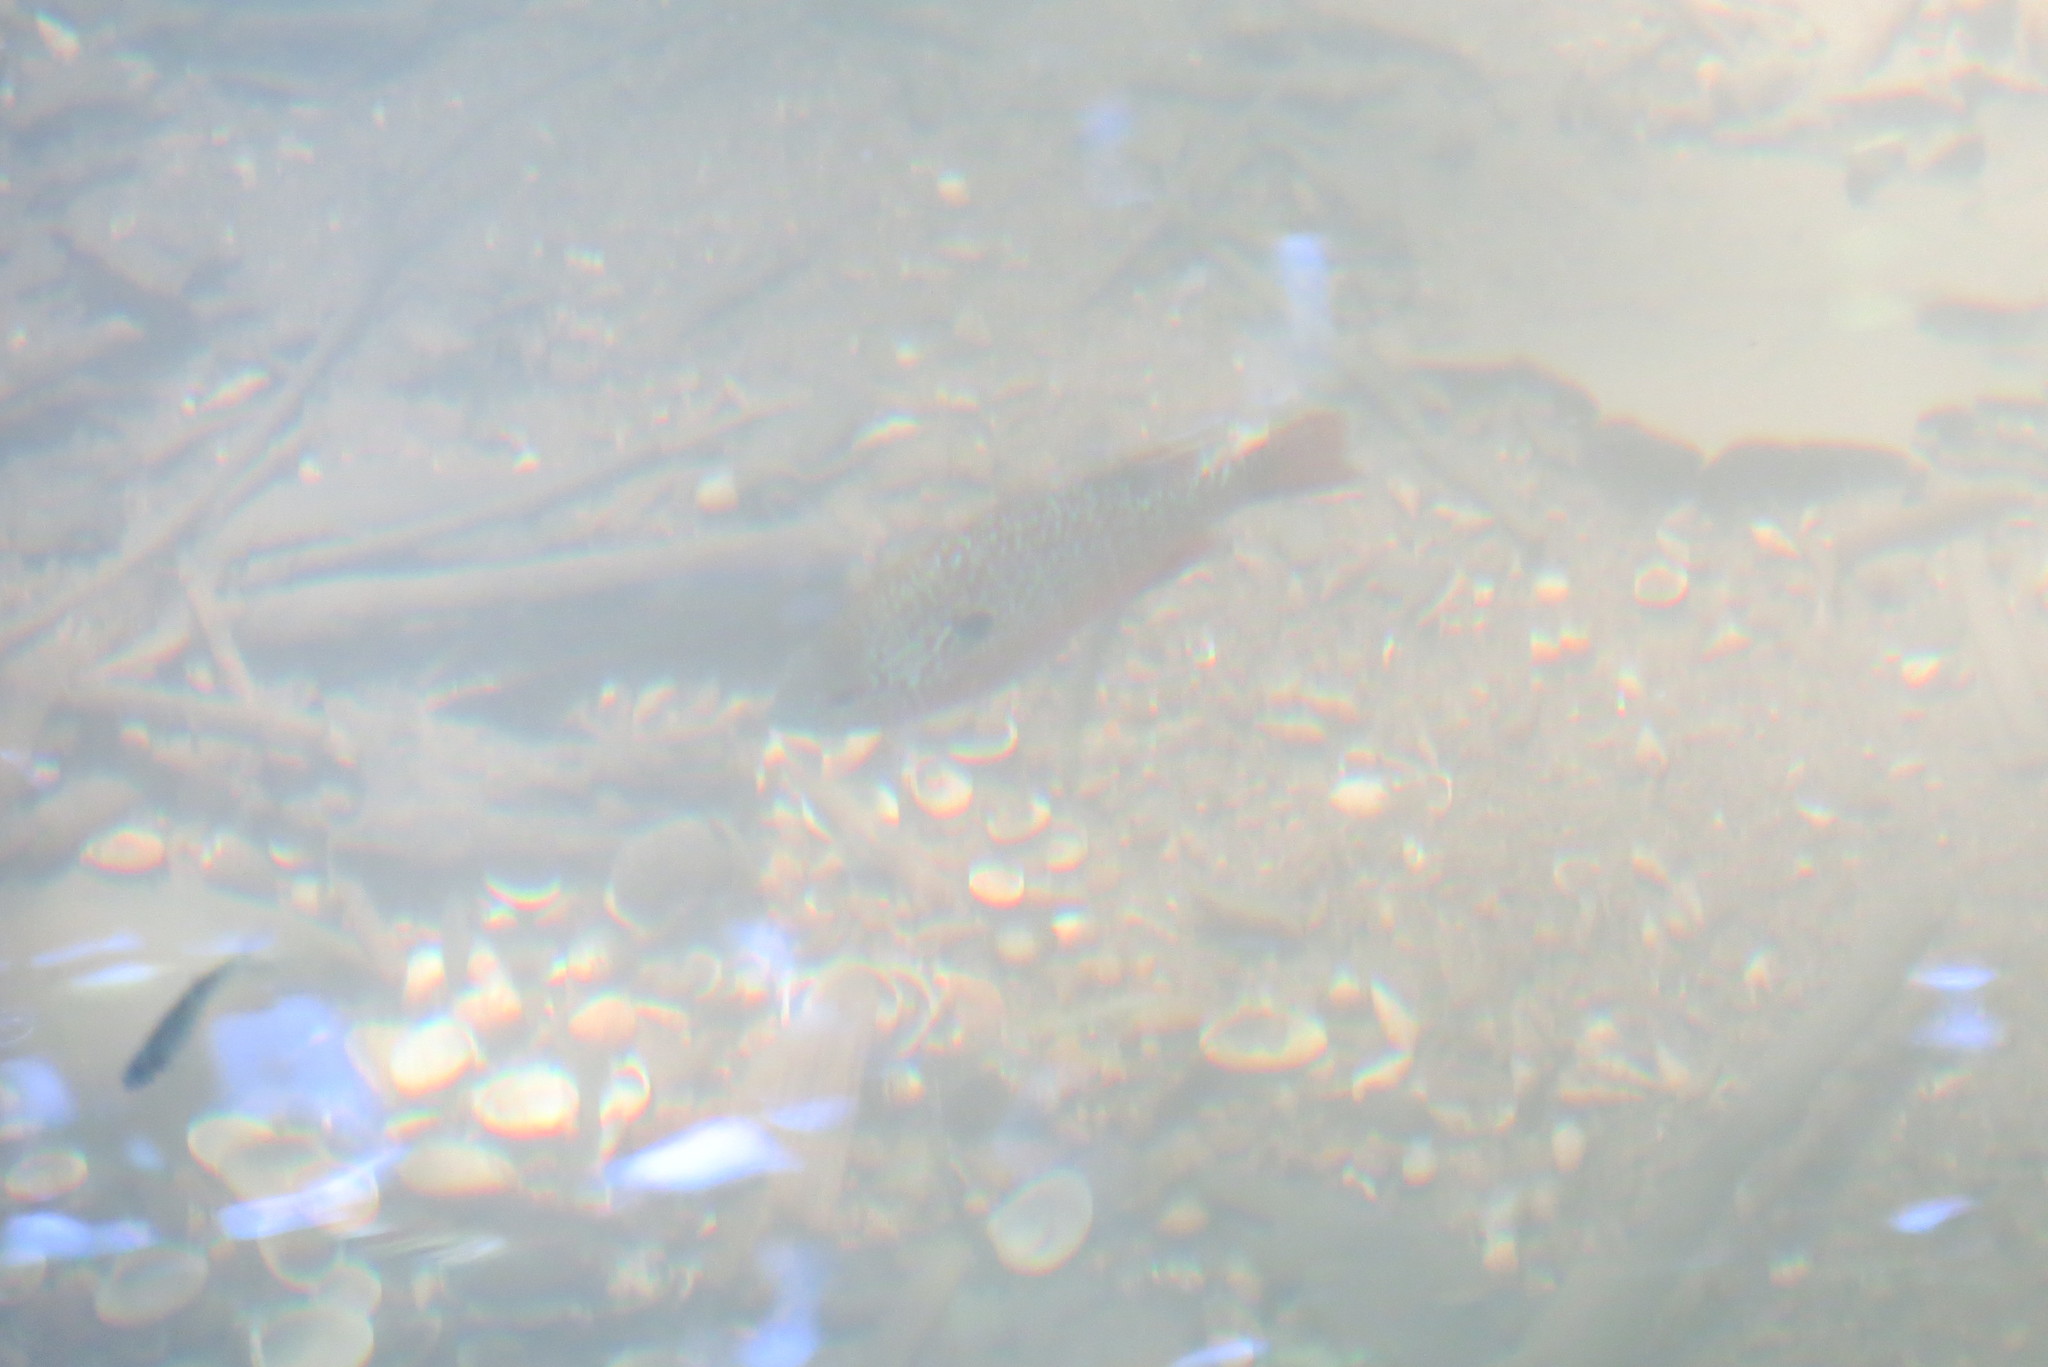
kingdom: Animalia
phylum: Chordata
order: Perciformes
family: Centrarchidae
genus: Lepomis
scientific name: Lepomis megalotis
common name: Longear sunfish
